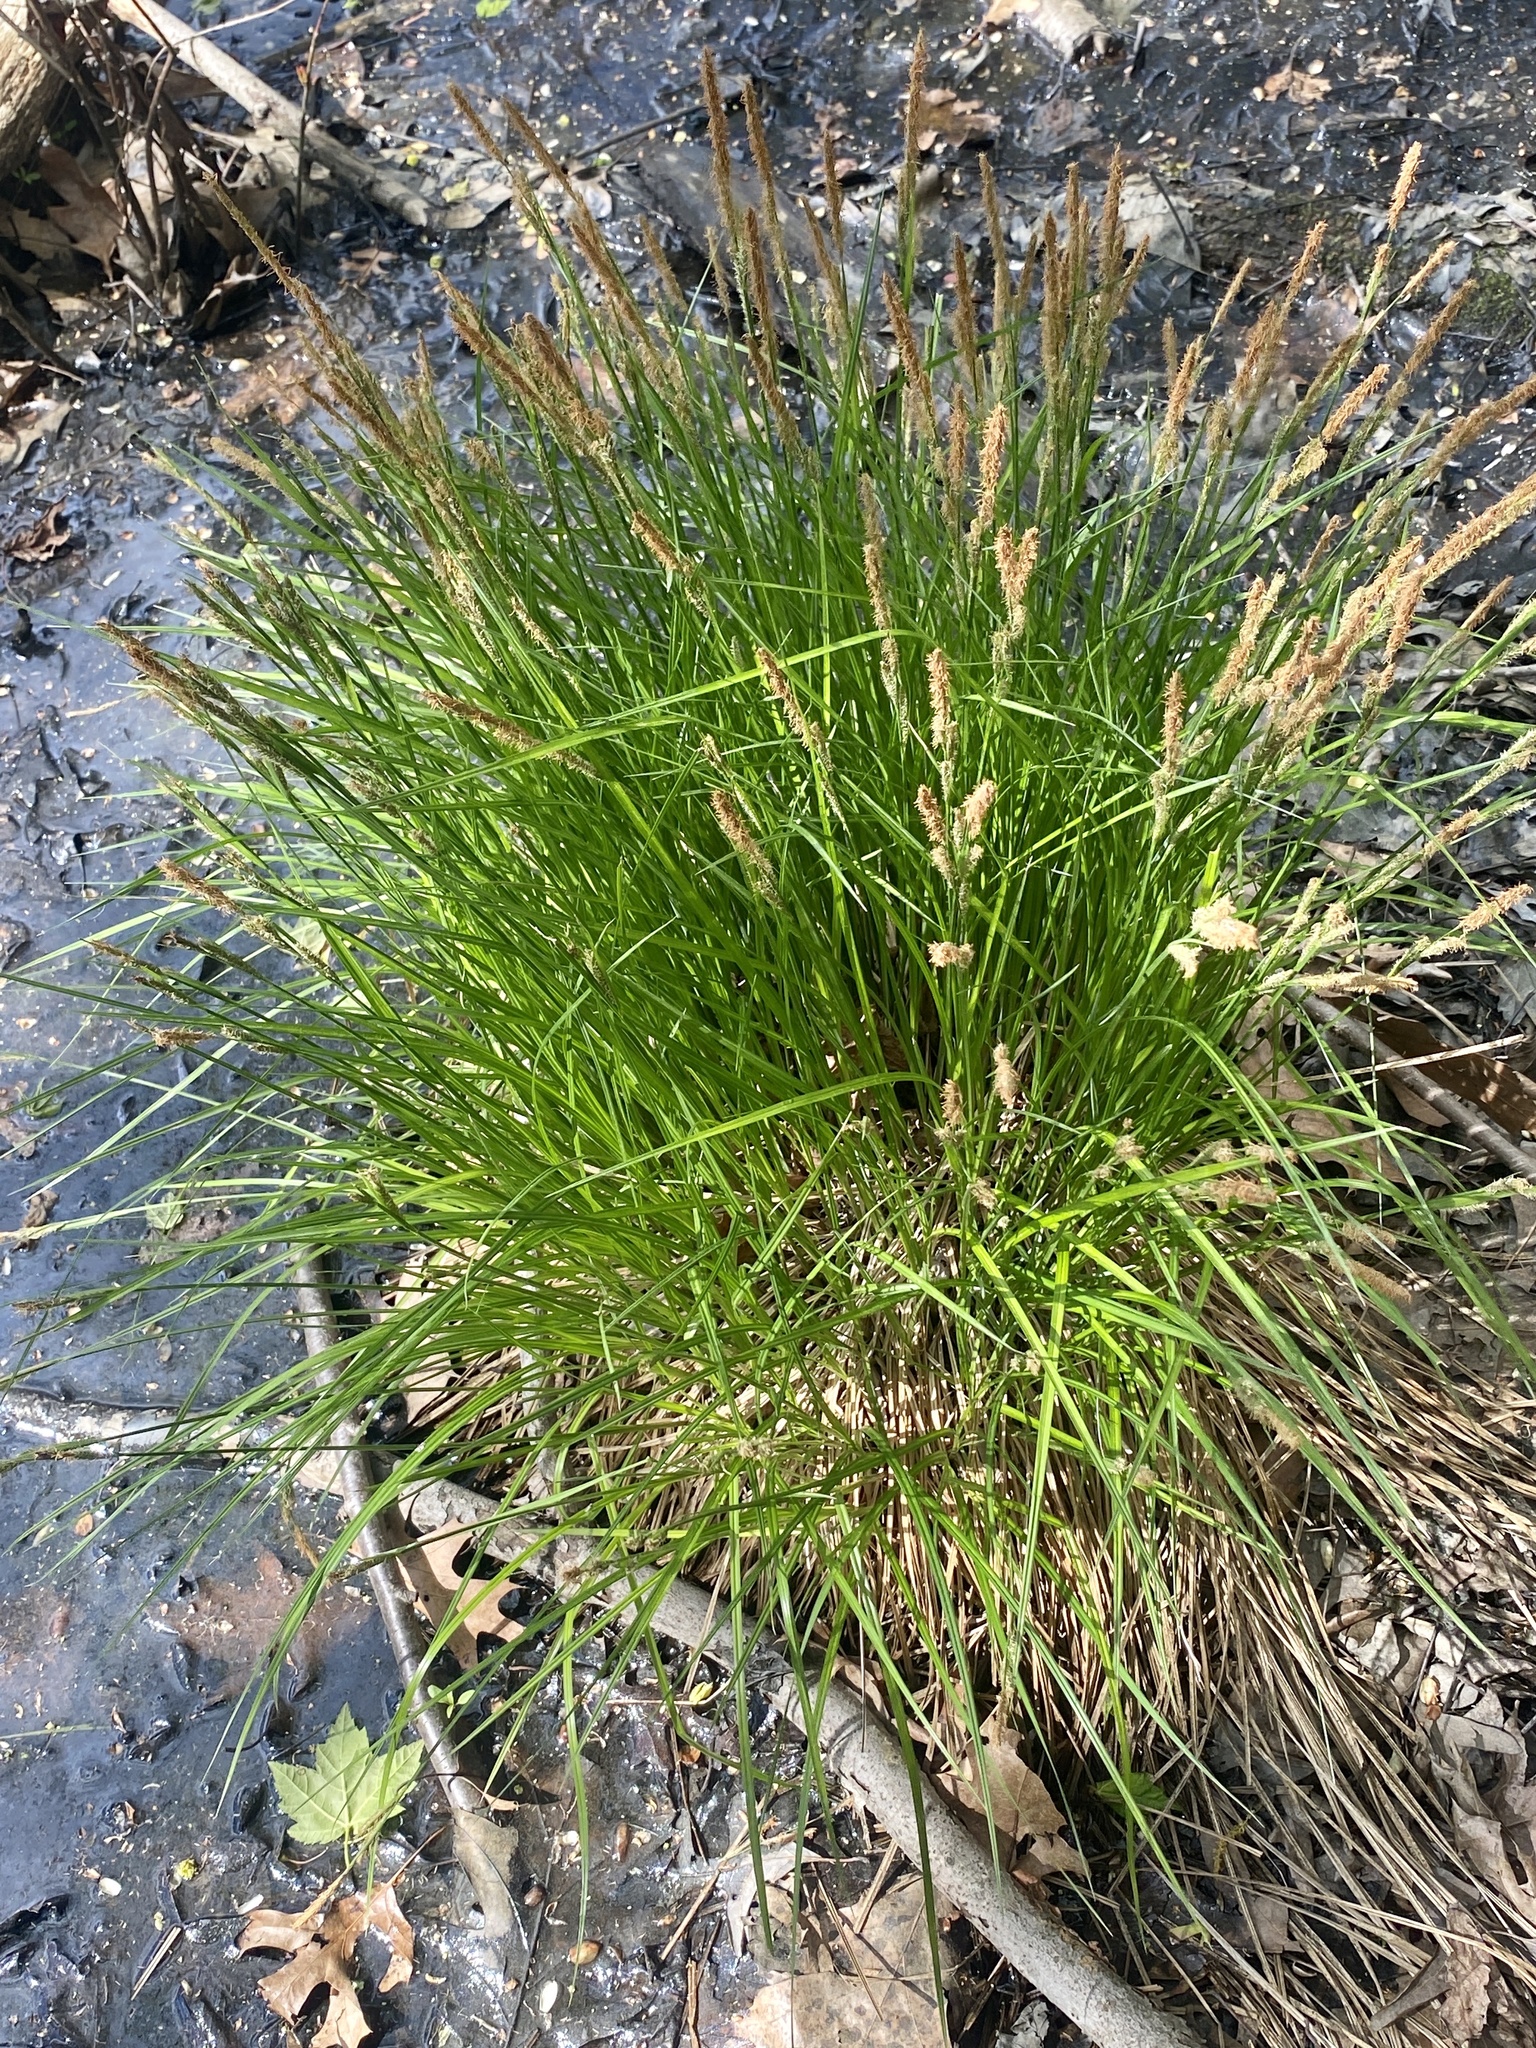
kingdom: Plantae
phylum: Tracheophyta
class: Liliopsida
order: Poales
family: Cyperaceae
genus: Carex
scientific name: Carex stricta
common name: Hummock sedge
